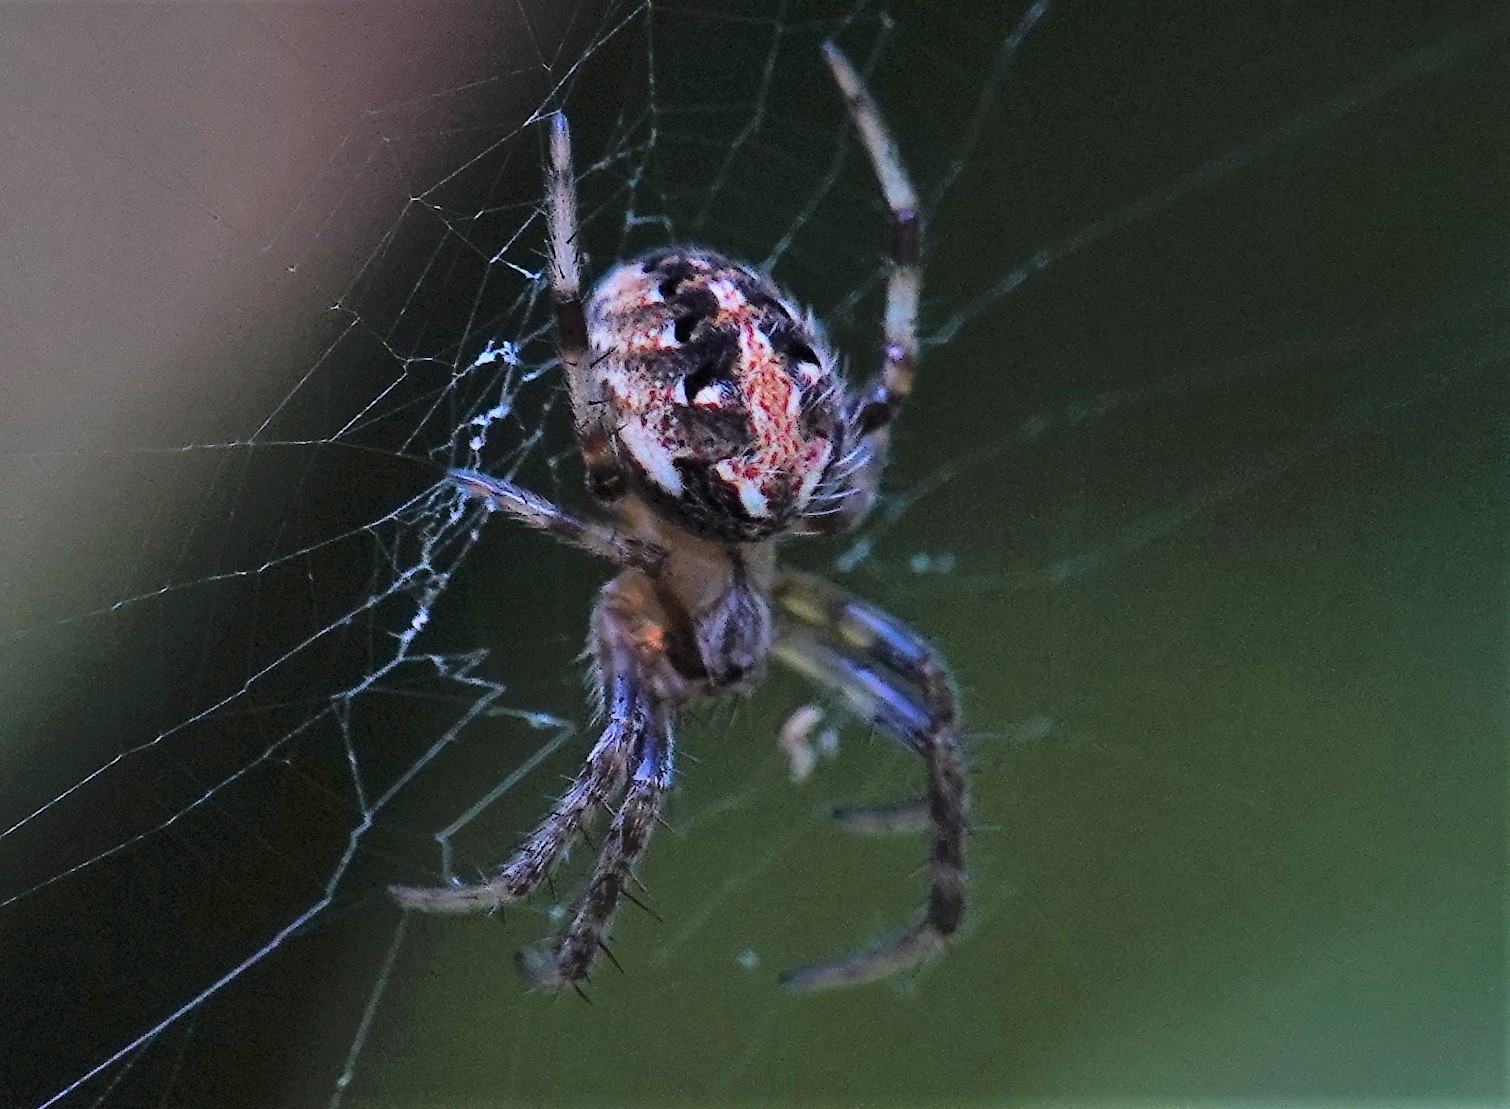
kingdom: Animalia
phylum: Arthropoda
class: Arachnida
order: Araneae
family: Araneidae
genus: Neoscona
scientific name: Neoscona arabesca
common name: Orb weavers
